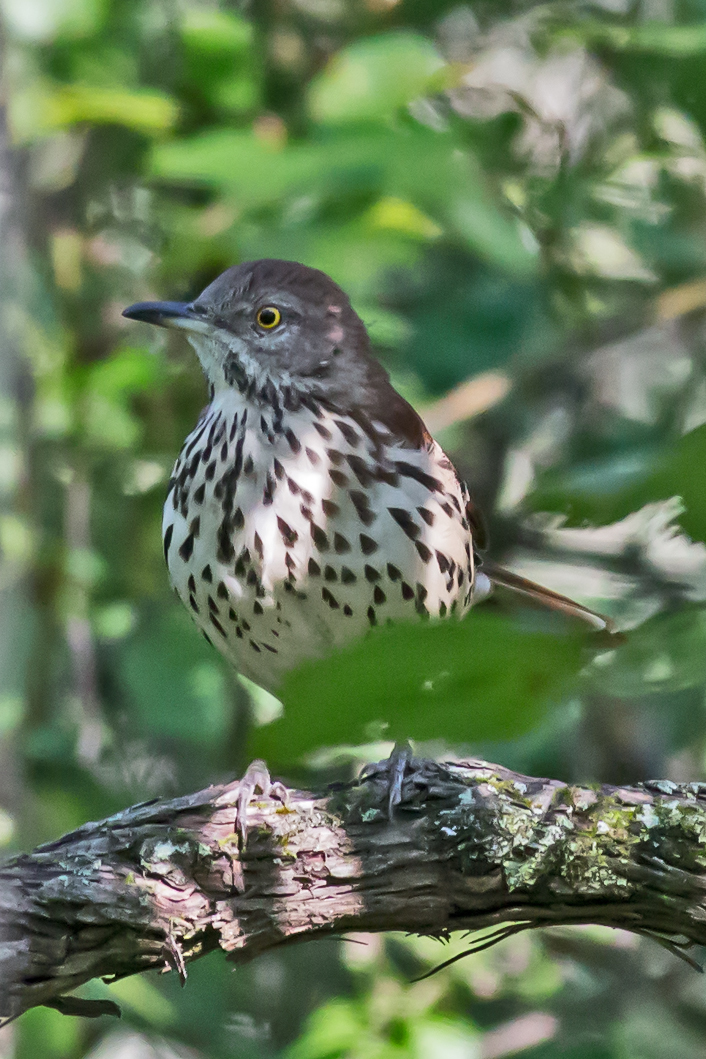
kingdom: Animalia
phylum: Chordata
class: Aves
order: Passeriformes
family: Mimidae
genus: Toxostoma
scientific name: Toxostoma rufum
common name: Brown thrasher
